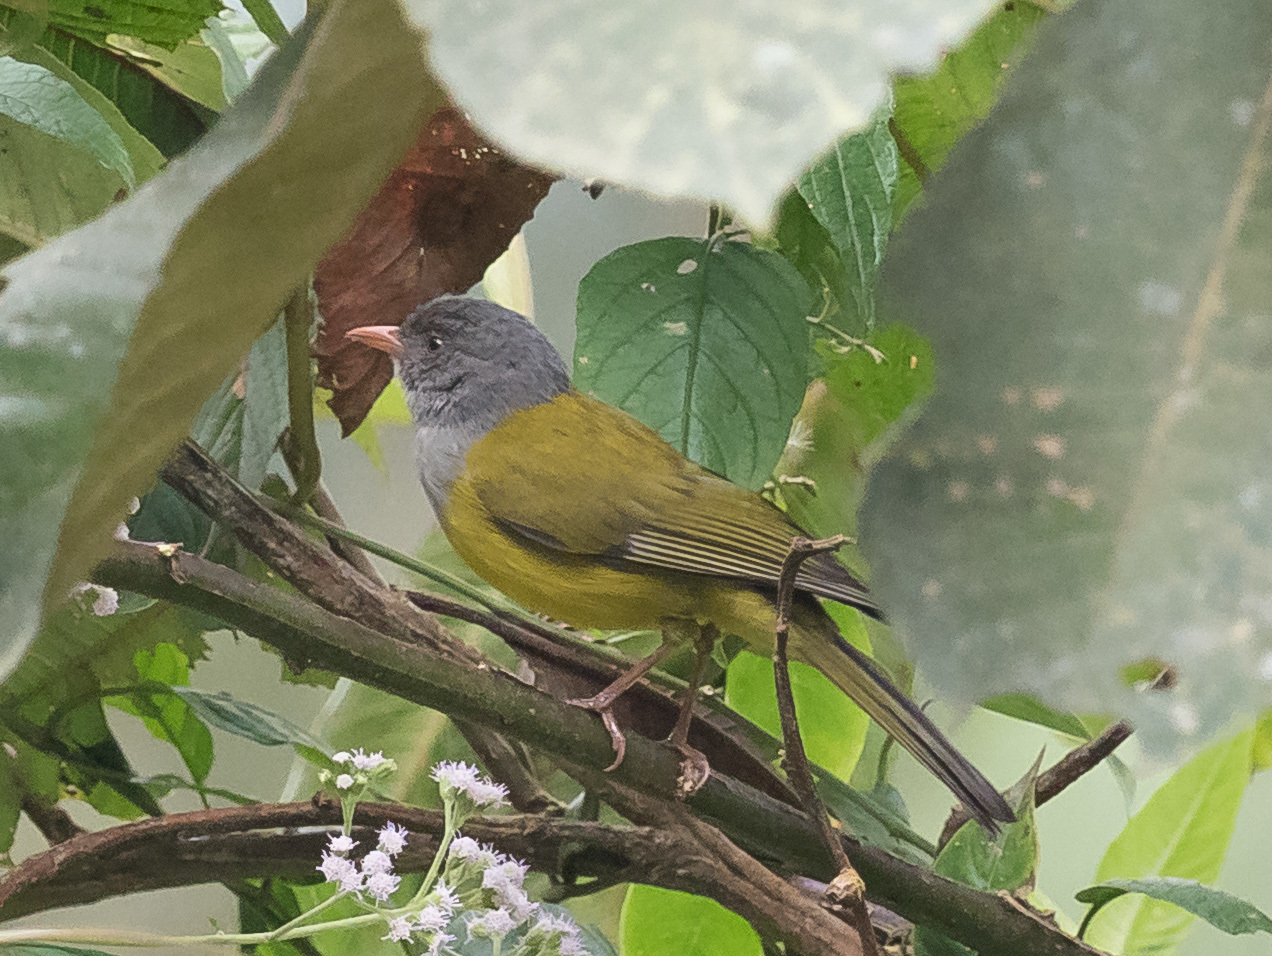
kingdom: Animalia
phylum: Chordata
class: Aves
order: Passeriformes
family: Thraupidae
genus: Cnemoscopus
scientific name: Cnemoscopus rubrirostris
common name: Grey-hooded bush tanager
